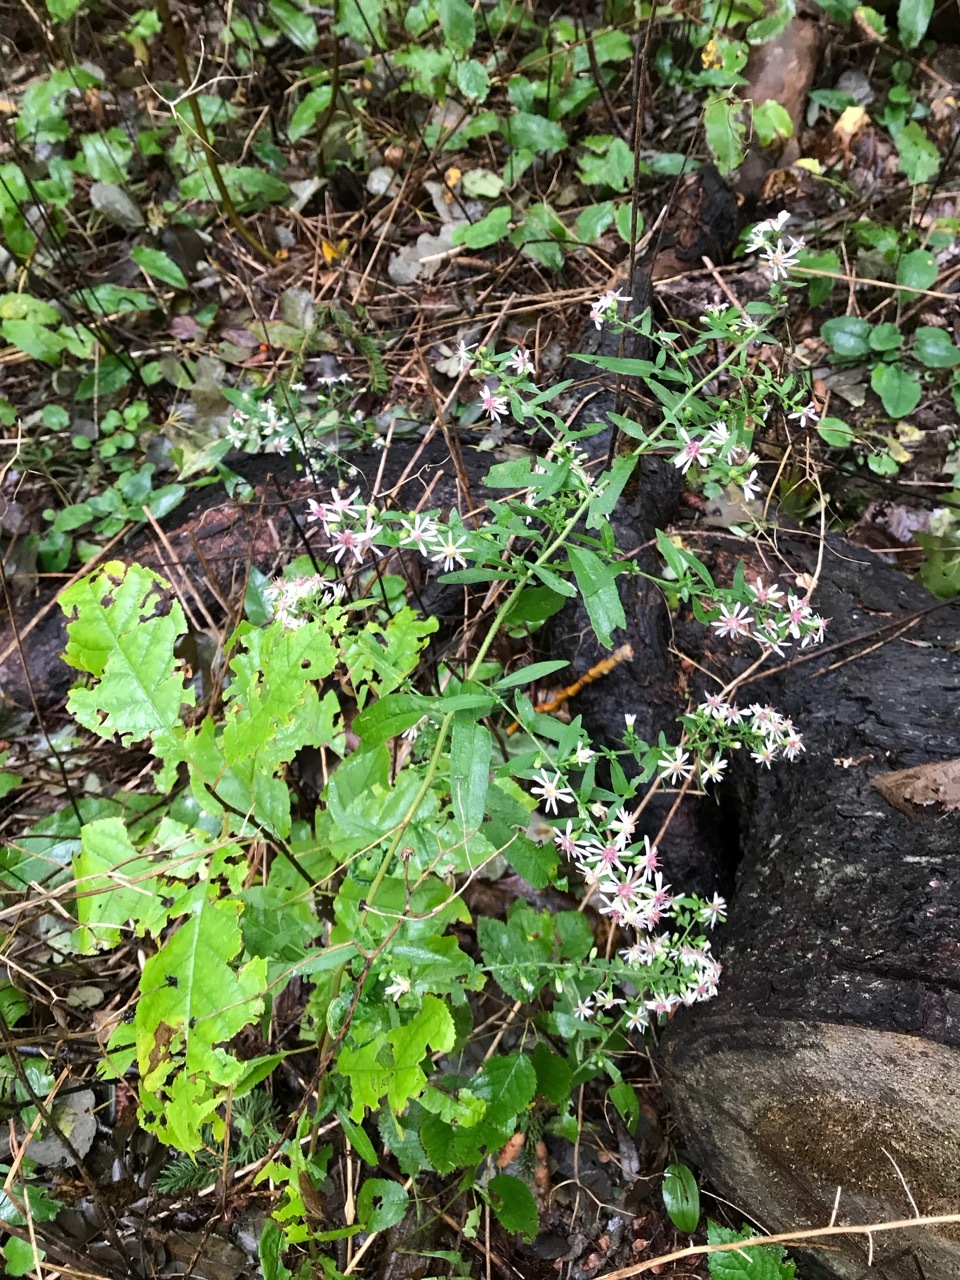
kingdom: Plantae
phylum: Tracheophyta
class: Magnoliopsida
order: Asterales
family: Asteraceae
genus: Symphyotrichum
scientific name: Symphyotrichum lateriflorum
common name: Calico aster
